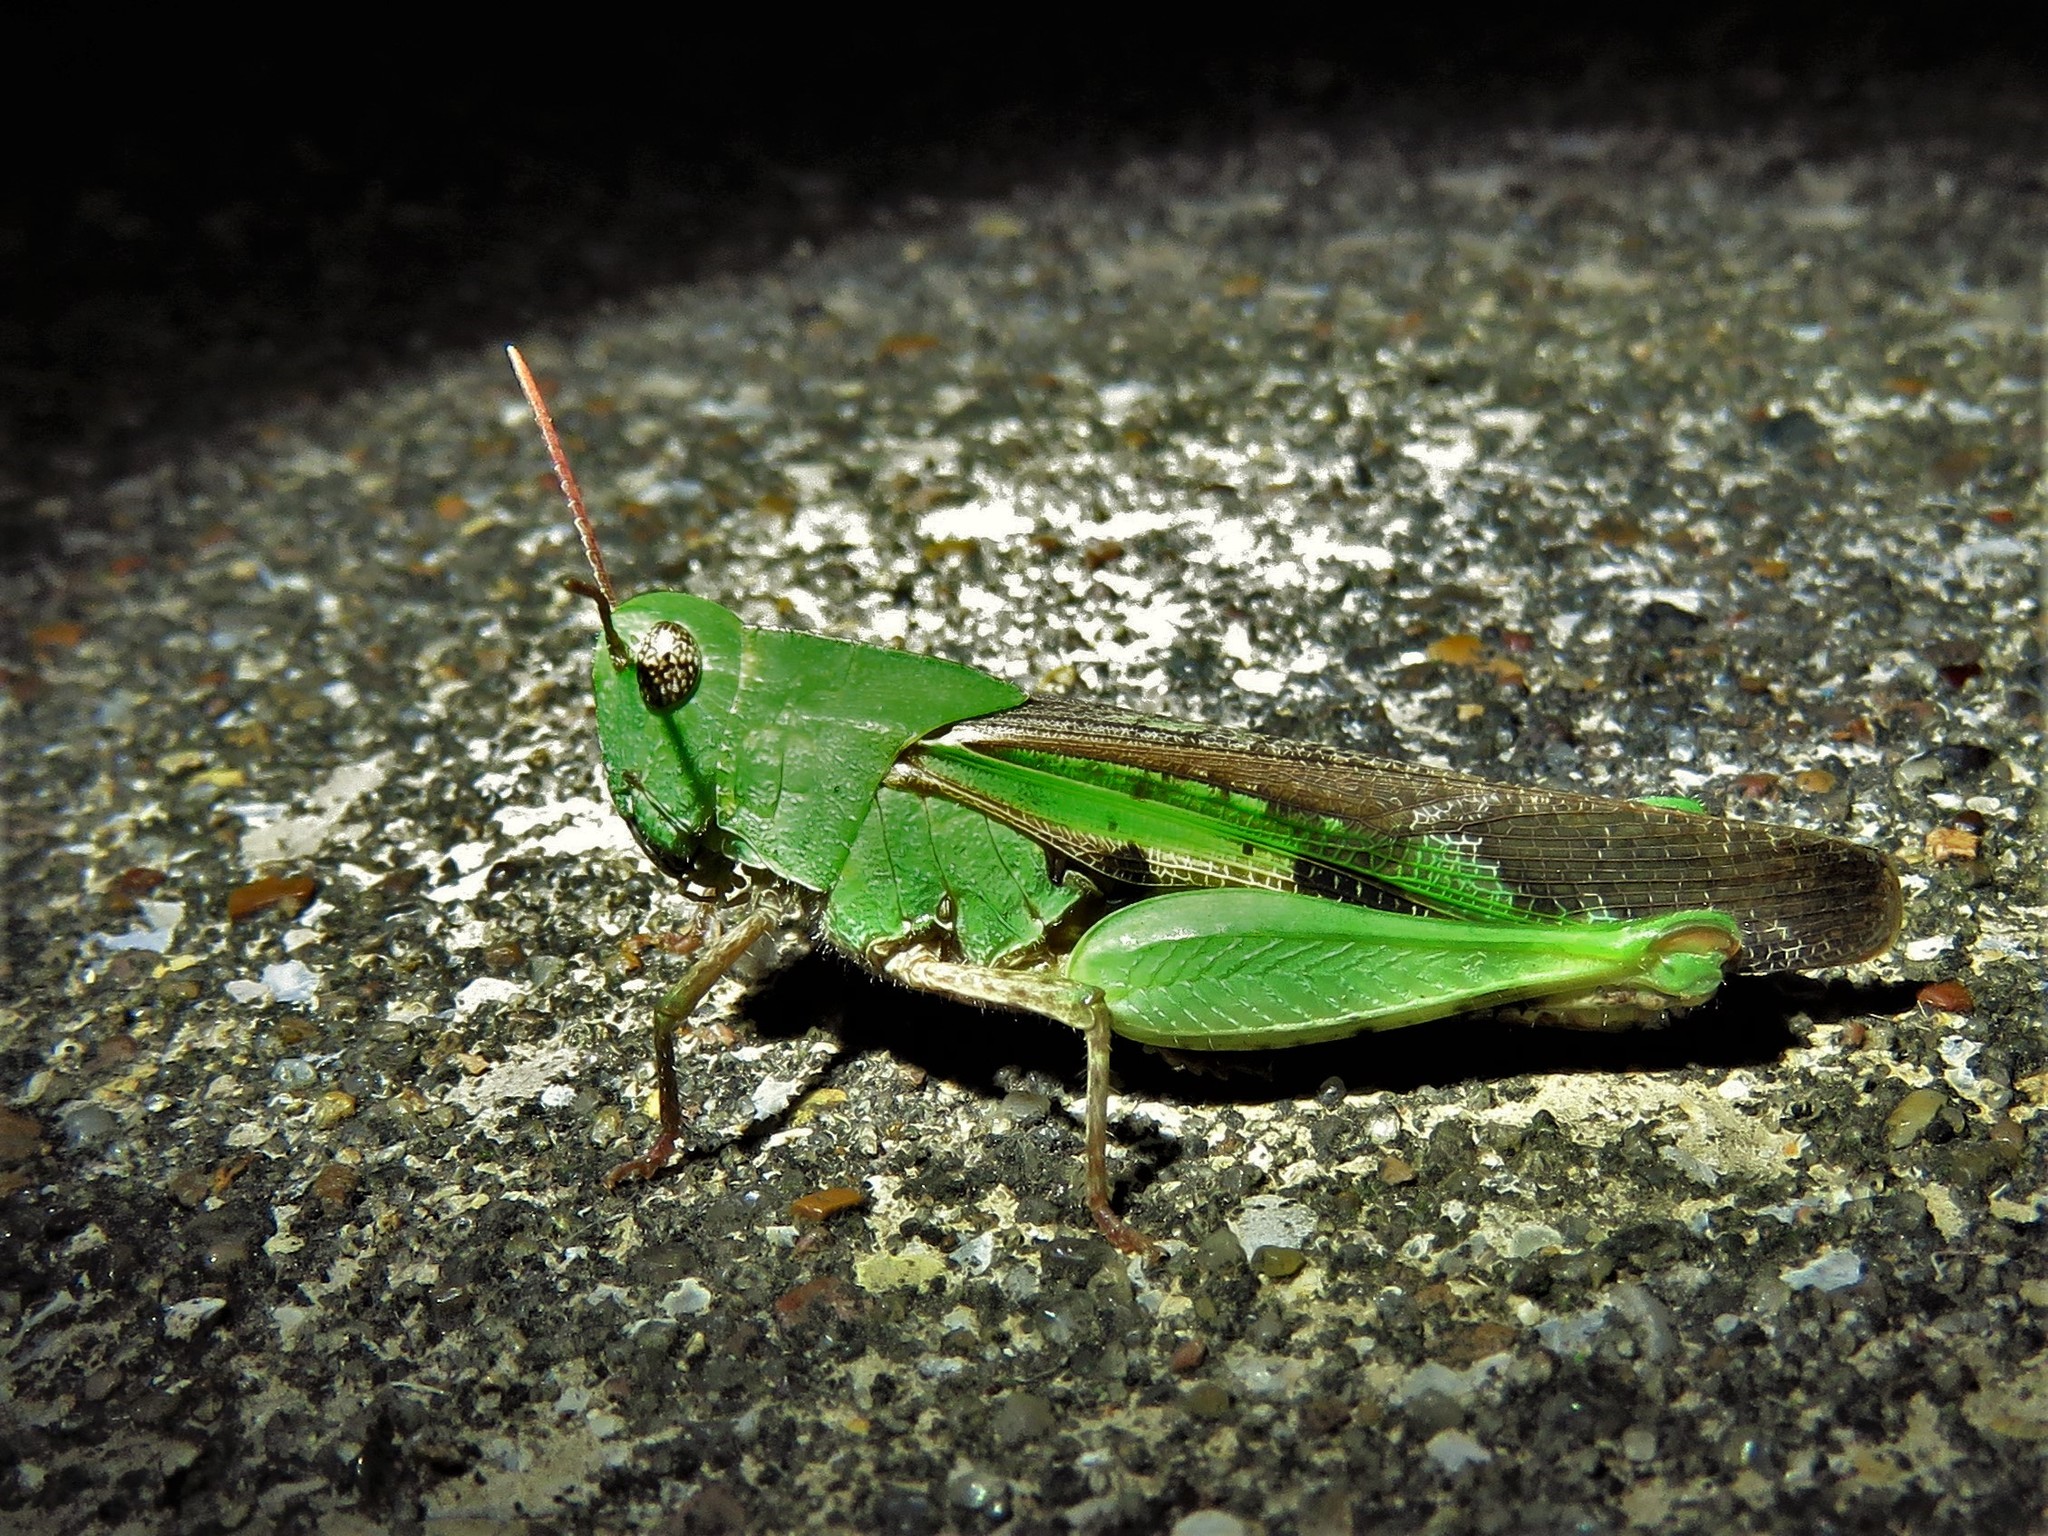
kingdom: Animalia
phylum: Arthropoda
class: Insecta
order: Orthoptera
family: Acrididae
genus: Chortophaga
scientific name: Chortophaga viridifasciata
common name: Green-striped grasshopper
